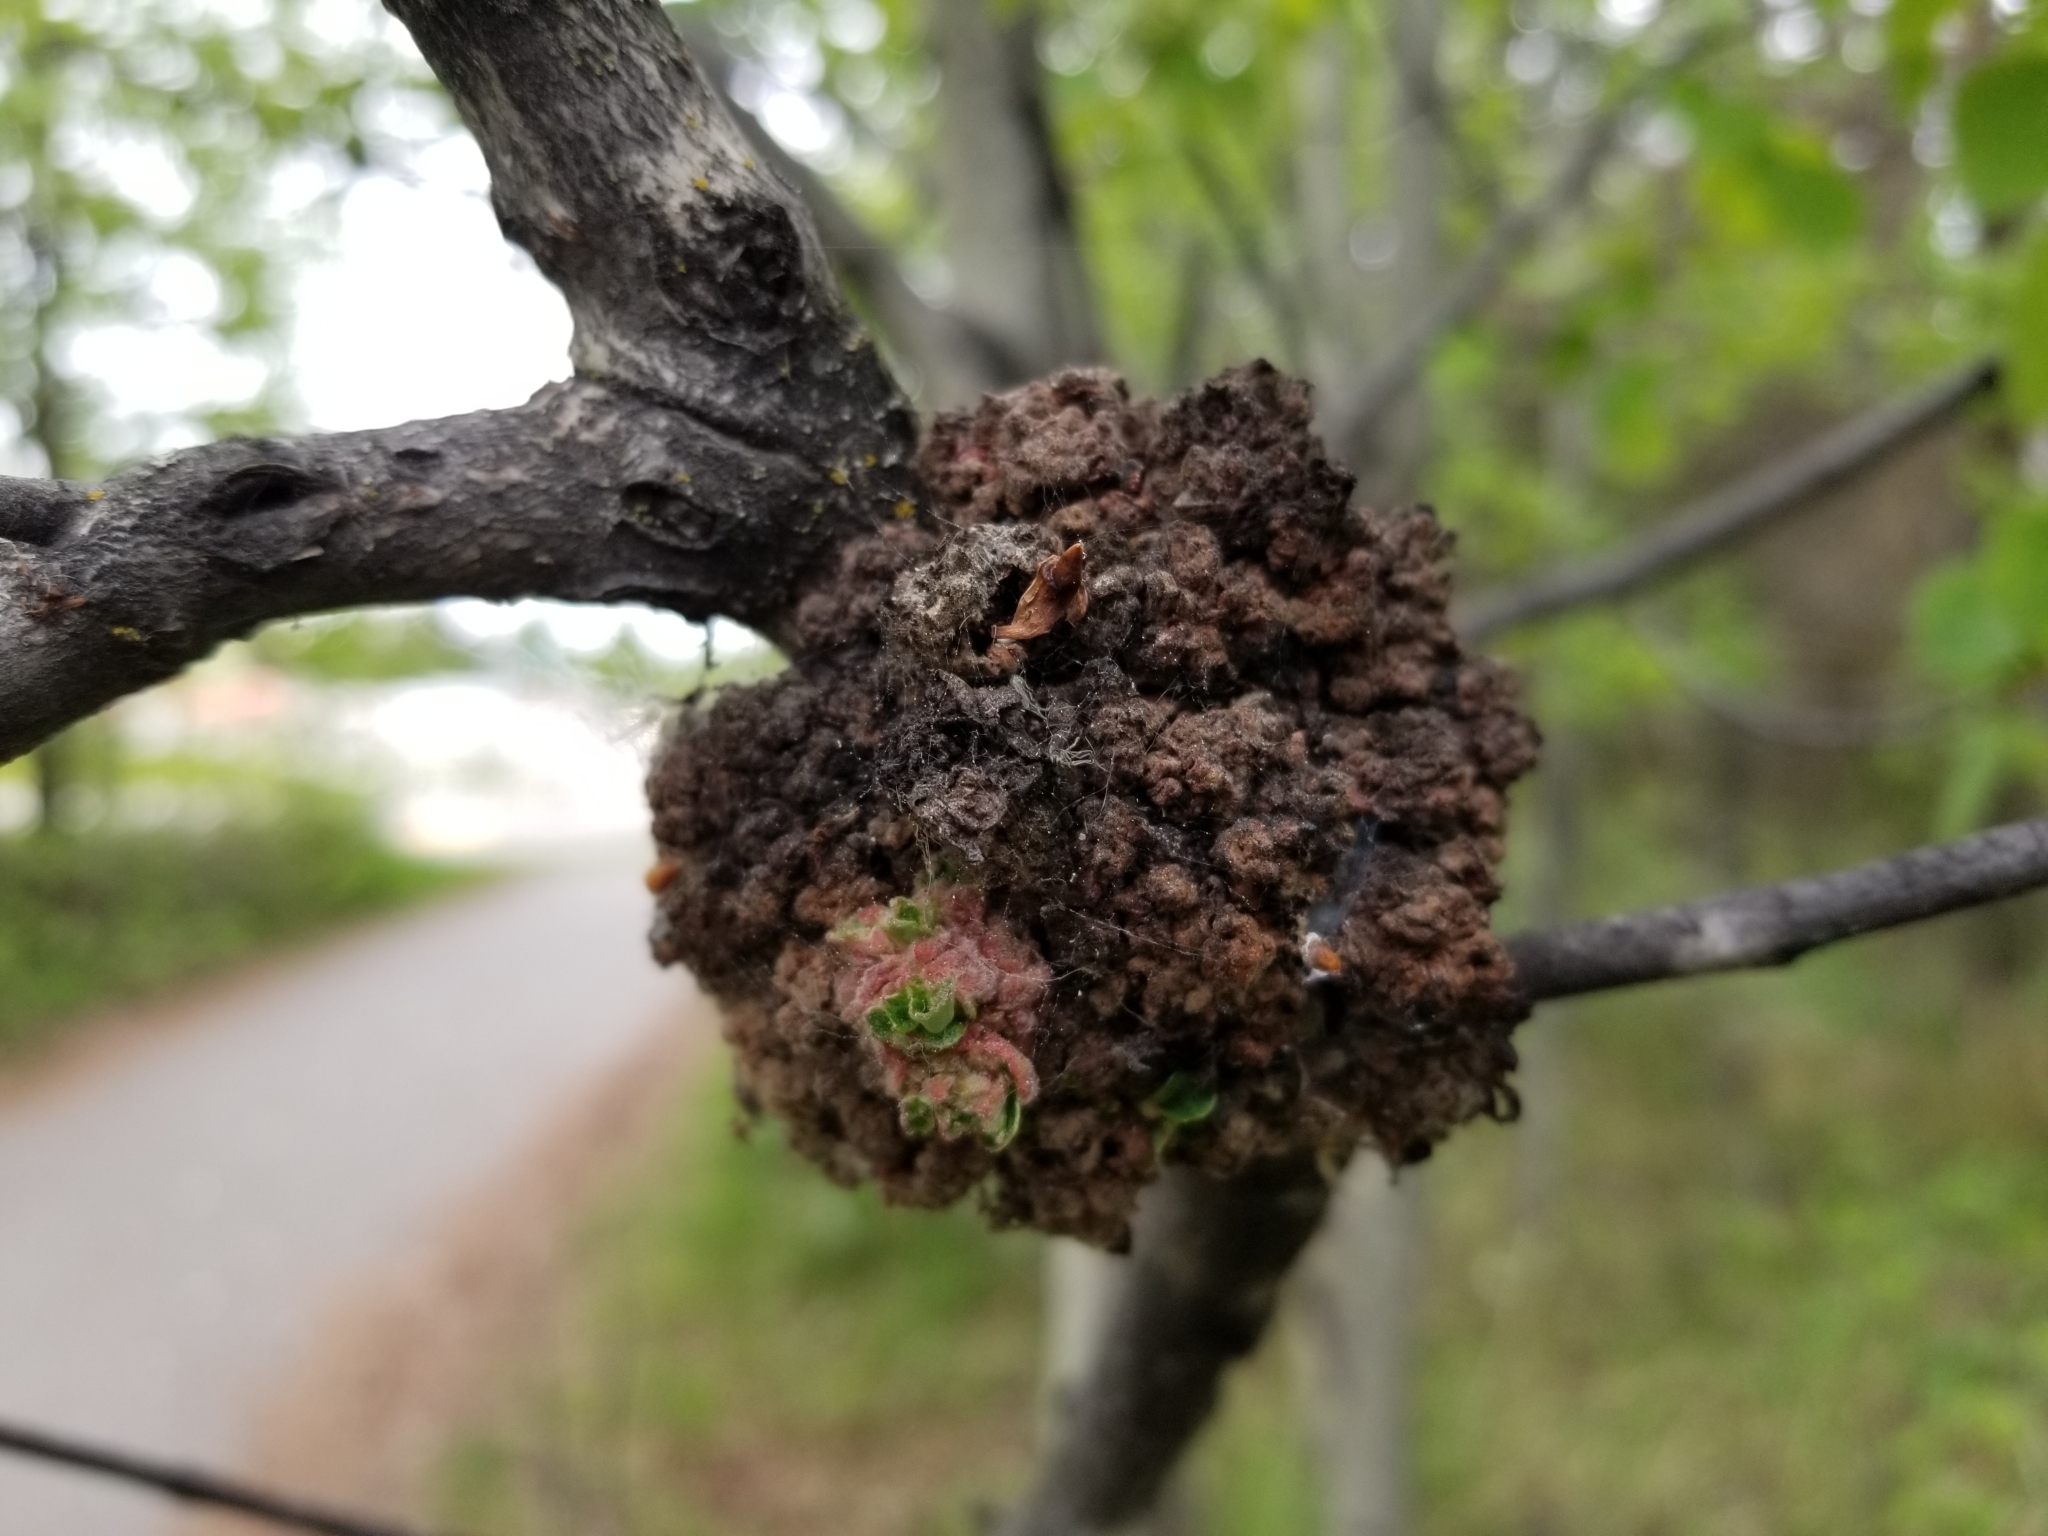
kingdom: Animalia
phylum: Arthropoda
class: Arachnida
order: Trombidiformes
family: Eriophyidae
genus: Aceria
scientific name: Aceria
